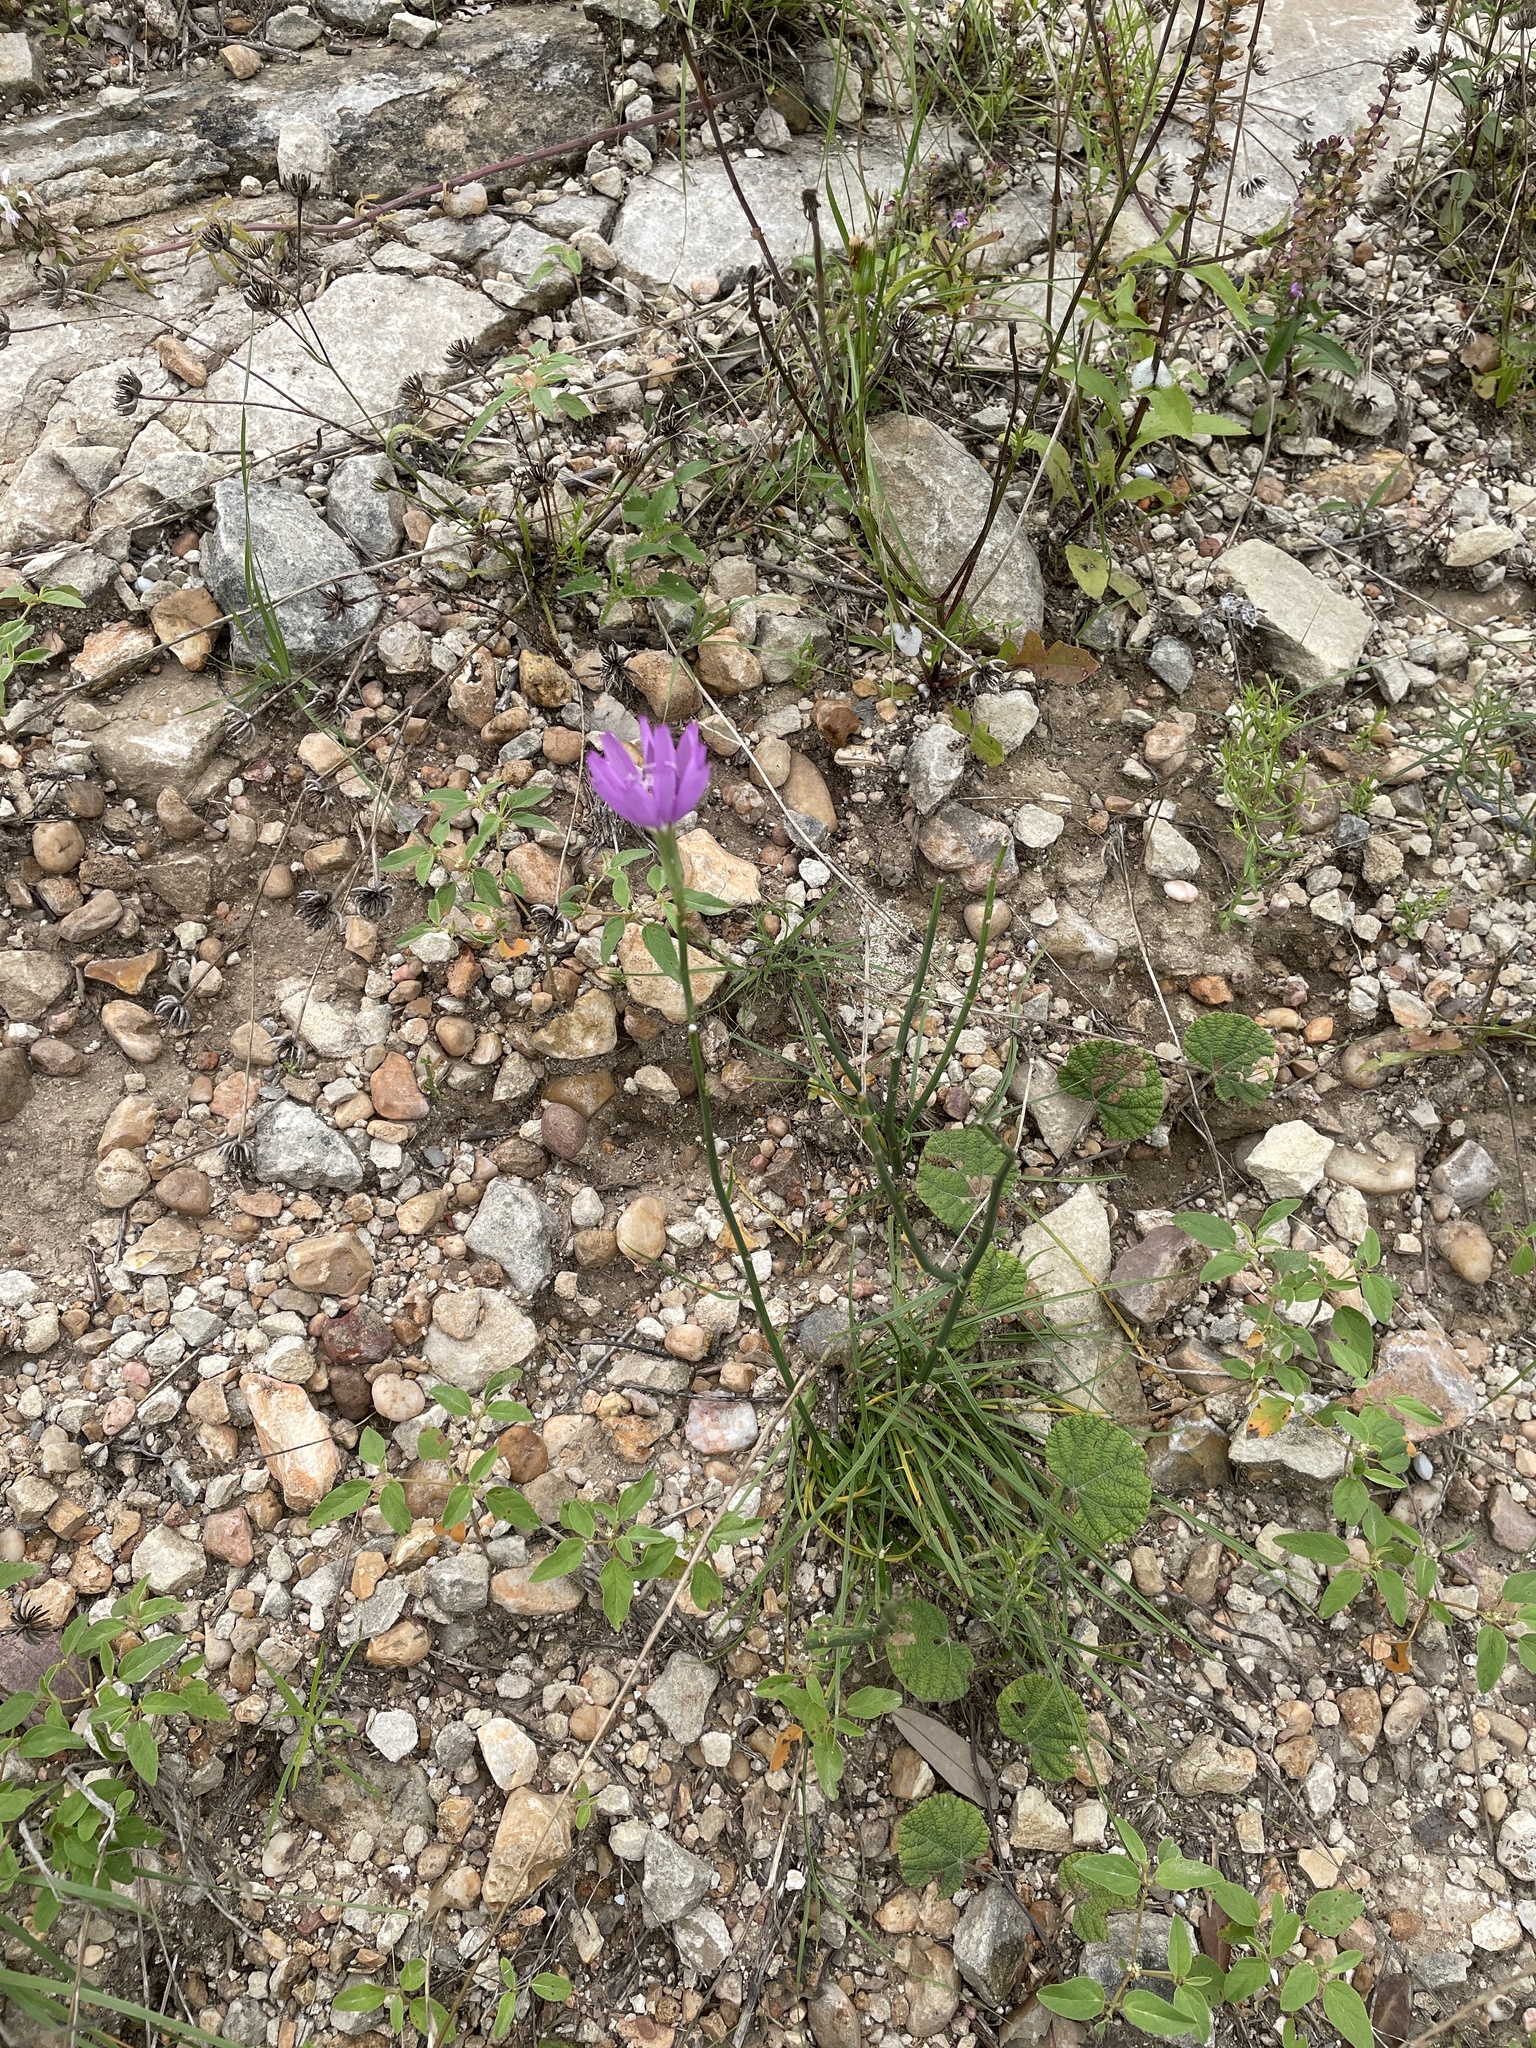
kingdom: Plantae
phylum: Tracheophyta
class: Magnoliopsida
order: Asterales
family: Asteraceae
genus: Lygodesmia
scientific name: Lygodesmia texana
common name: Texas skeleton-plant
